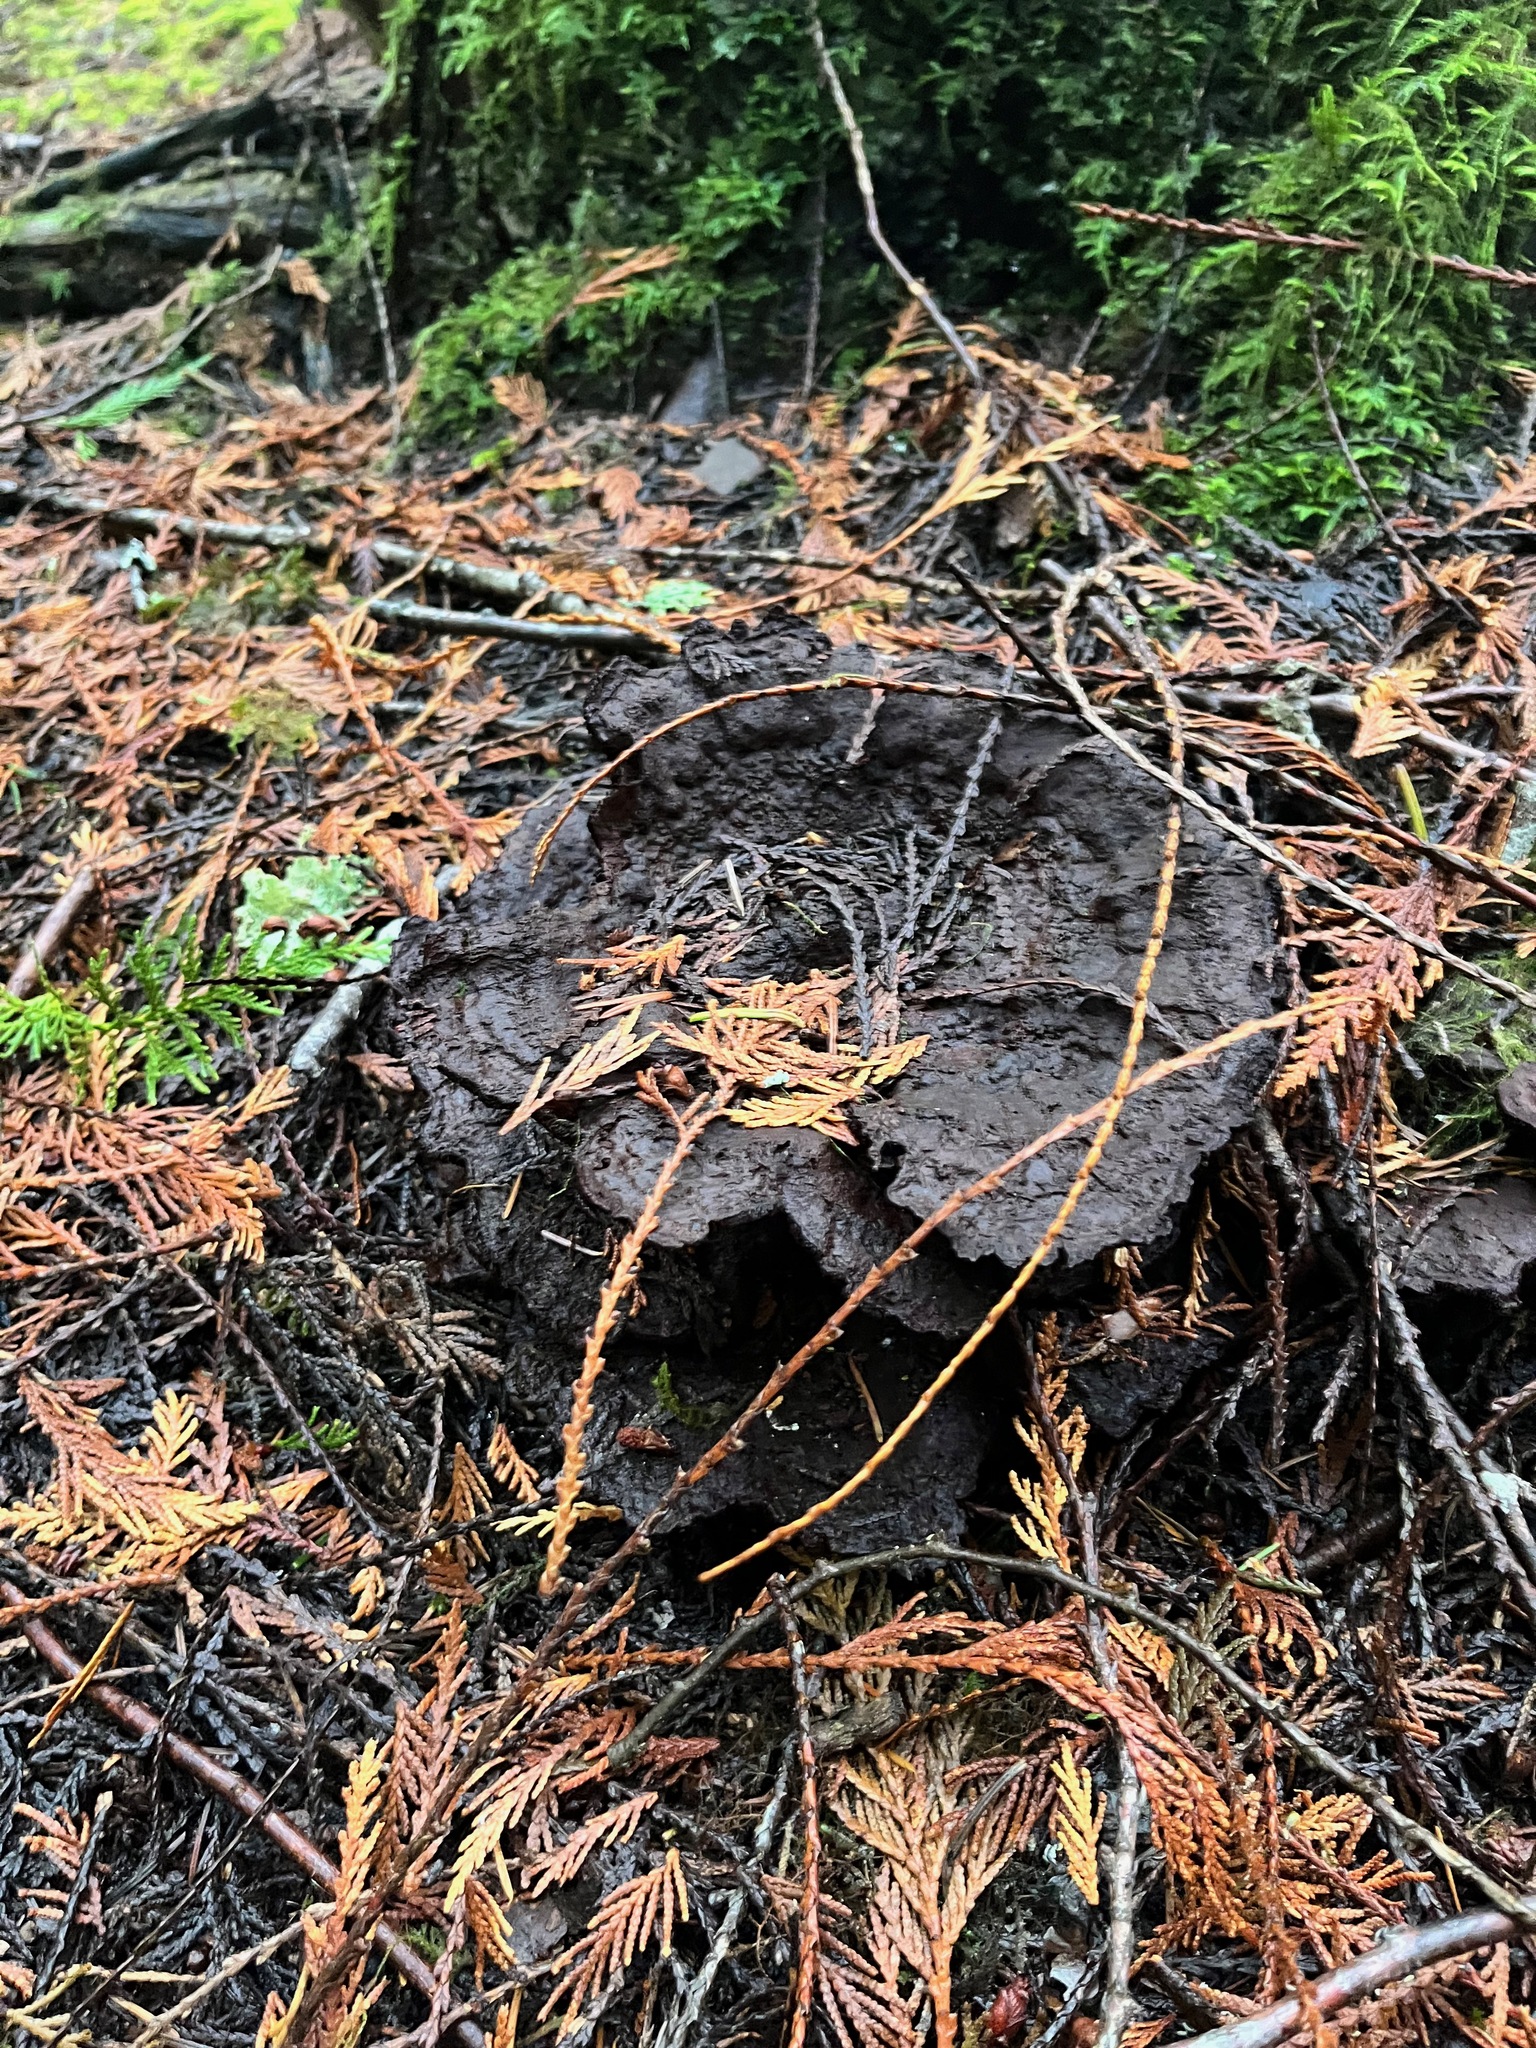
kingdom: Fungi
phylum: Basidiomycota
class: Agaricomycetes
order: Polyporales
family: Laetiporaceae
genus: Phaeolus
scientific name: Phaeolus schweinitzii
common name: Dyer's mazegill
